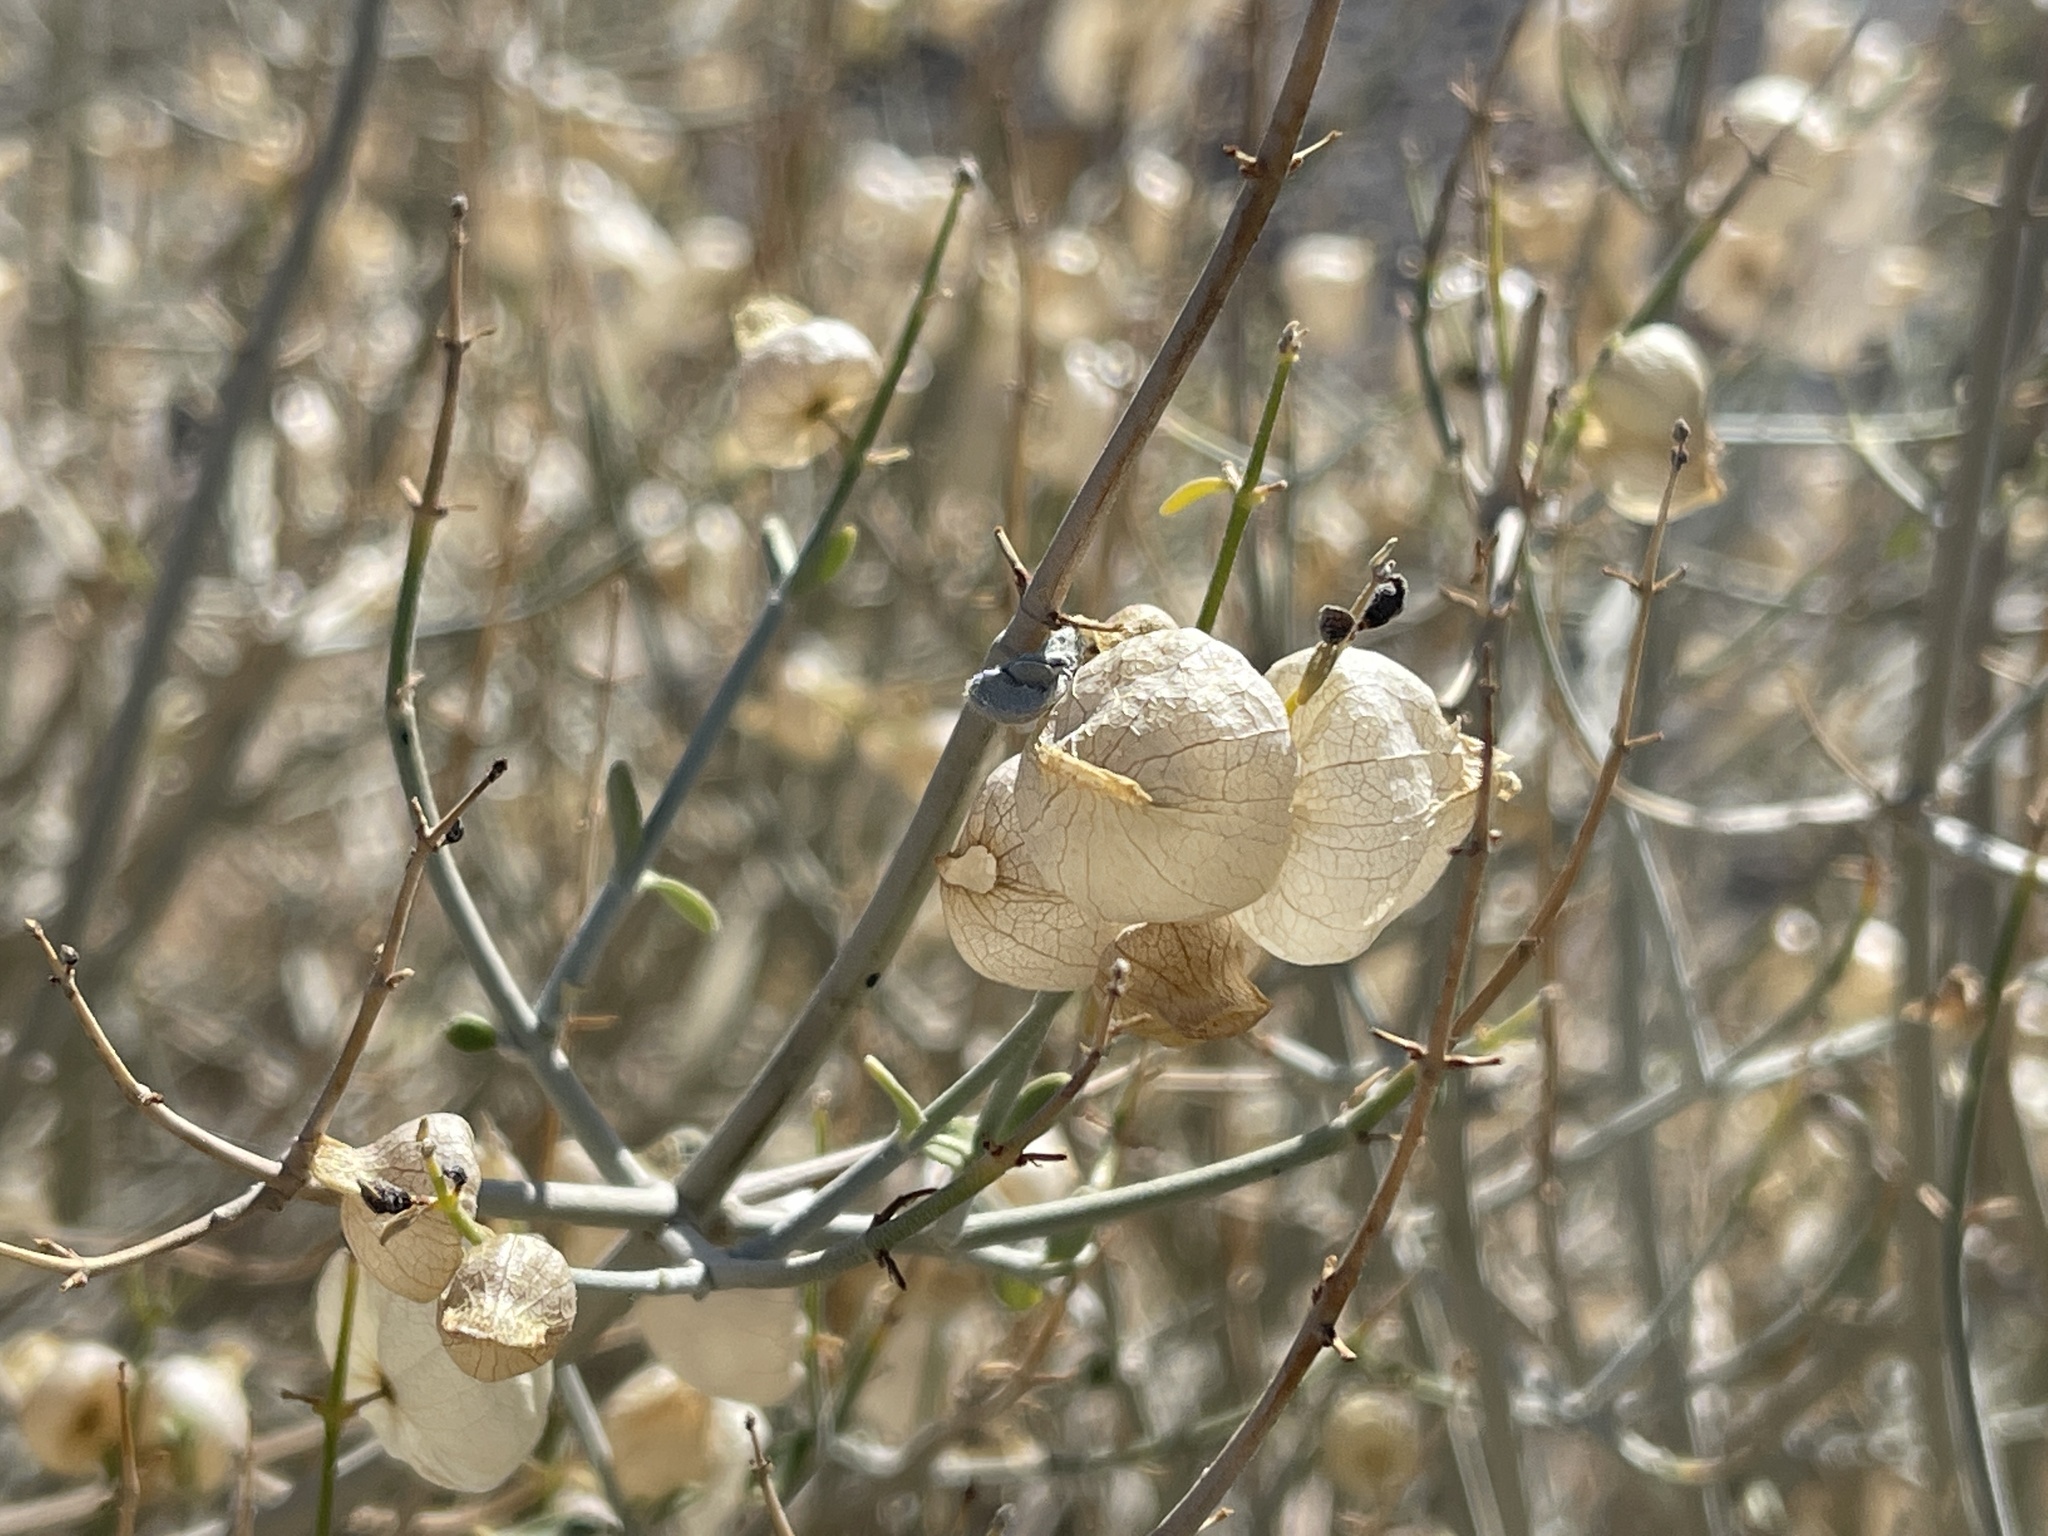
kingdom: Plantae
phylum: Tracheophyta
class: Magnoliopsida
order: Lamiales
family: Lamiaceae
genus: Scutellaria
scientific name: Scutellaria mexicana
